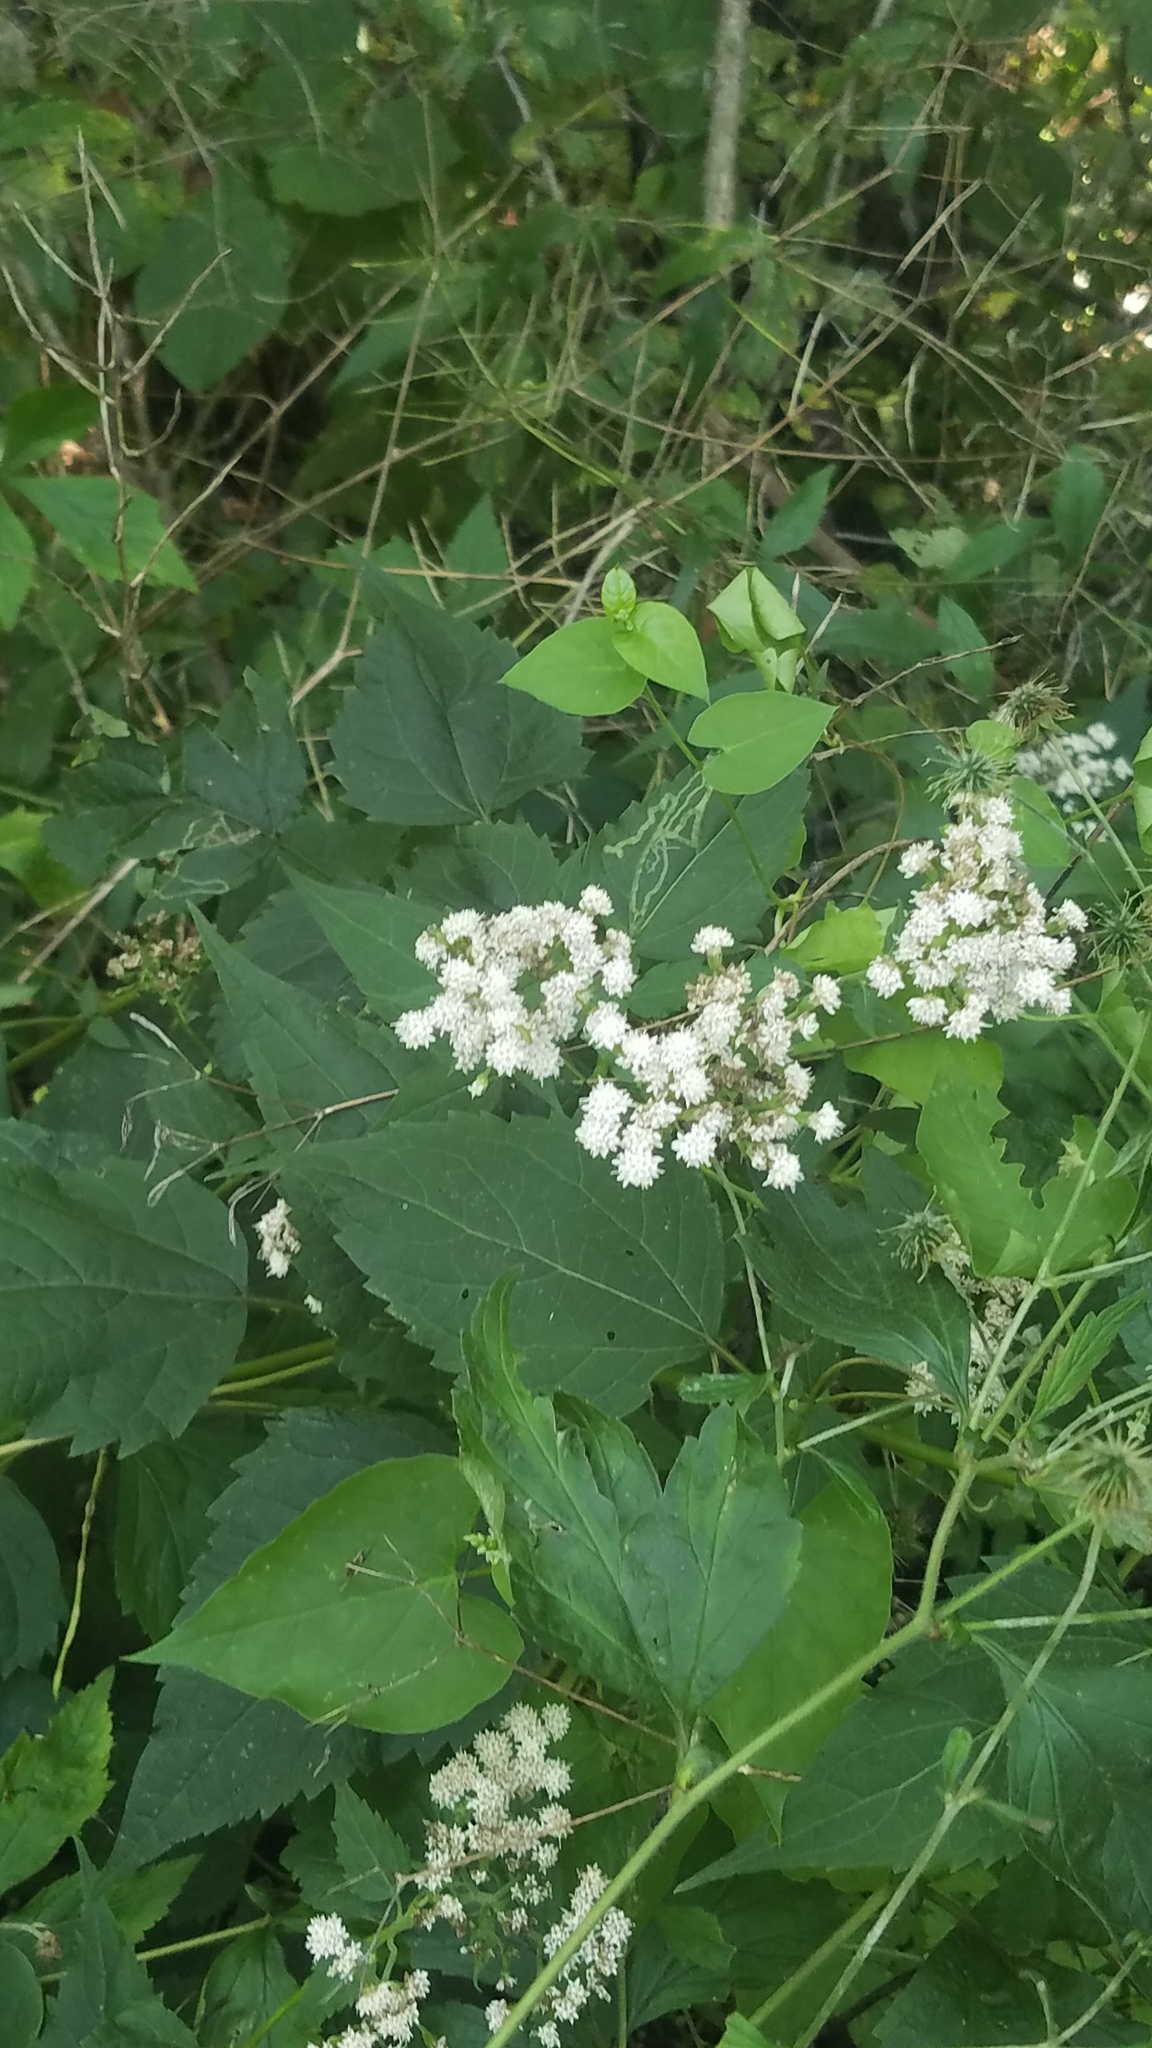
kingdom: Plantae
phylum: Tracheophyta
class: Magnoliopsida
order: Asterales
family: Asteraceae
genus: Ageratina
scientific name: Ageratina altissima
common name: White snakeroot
